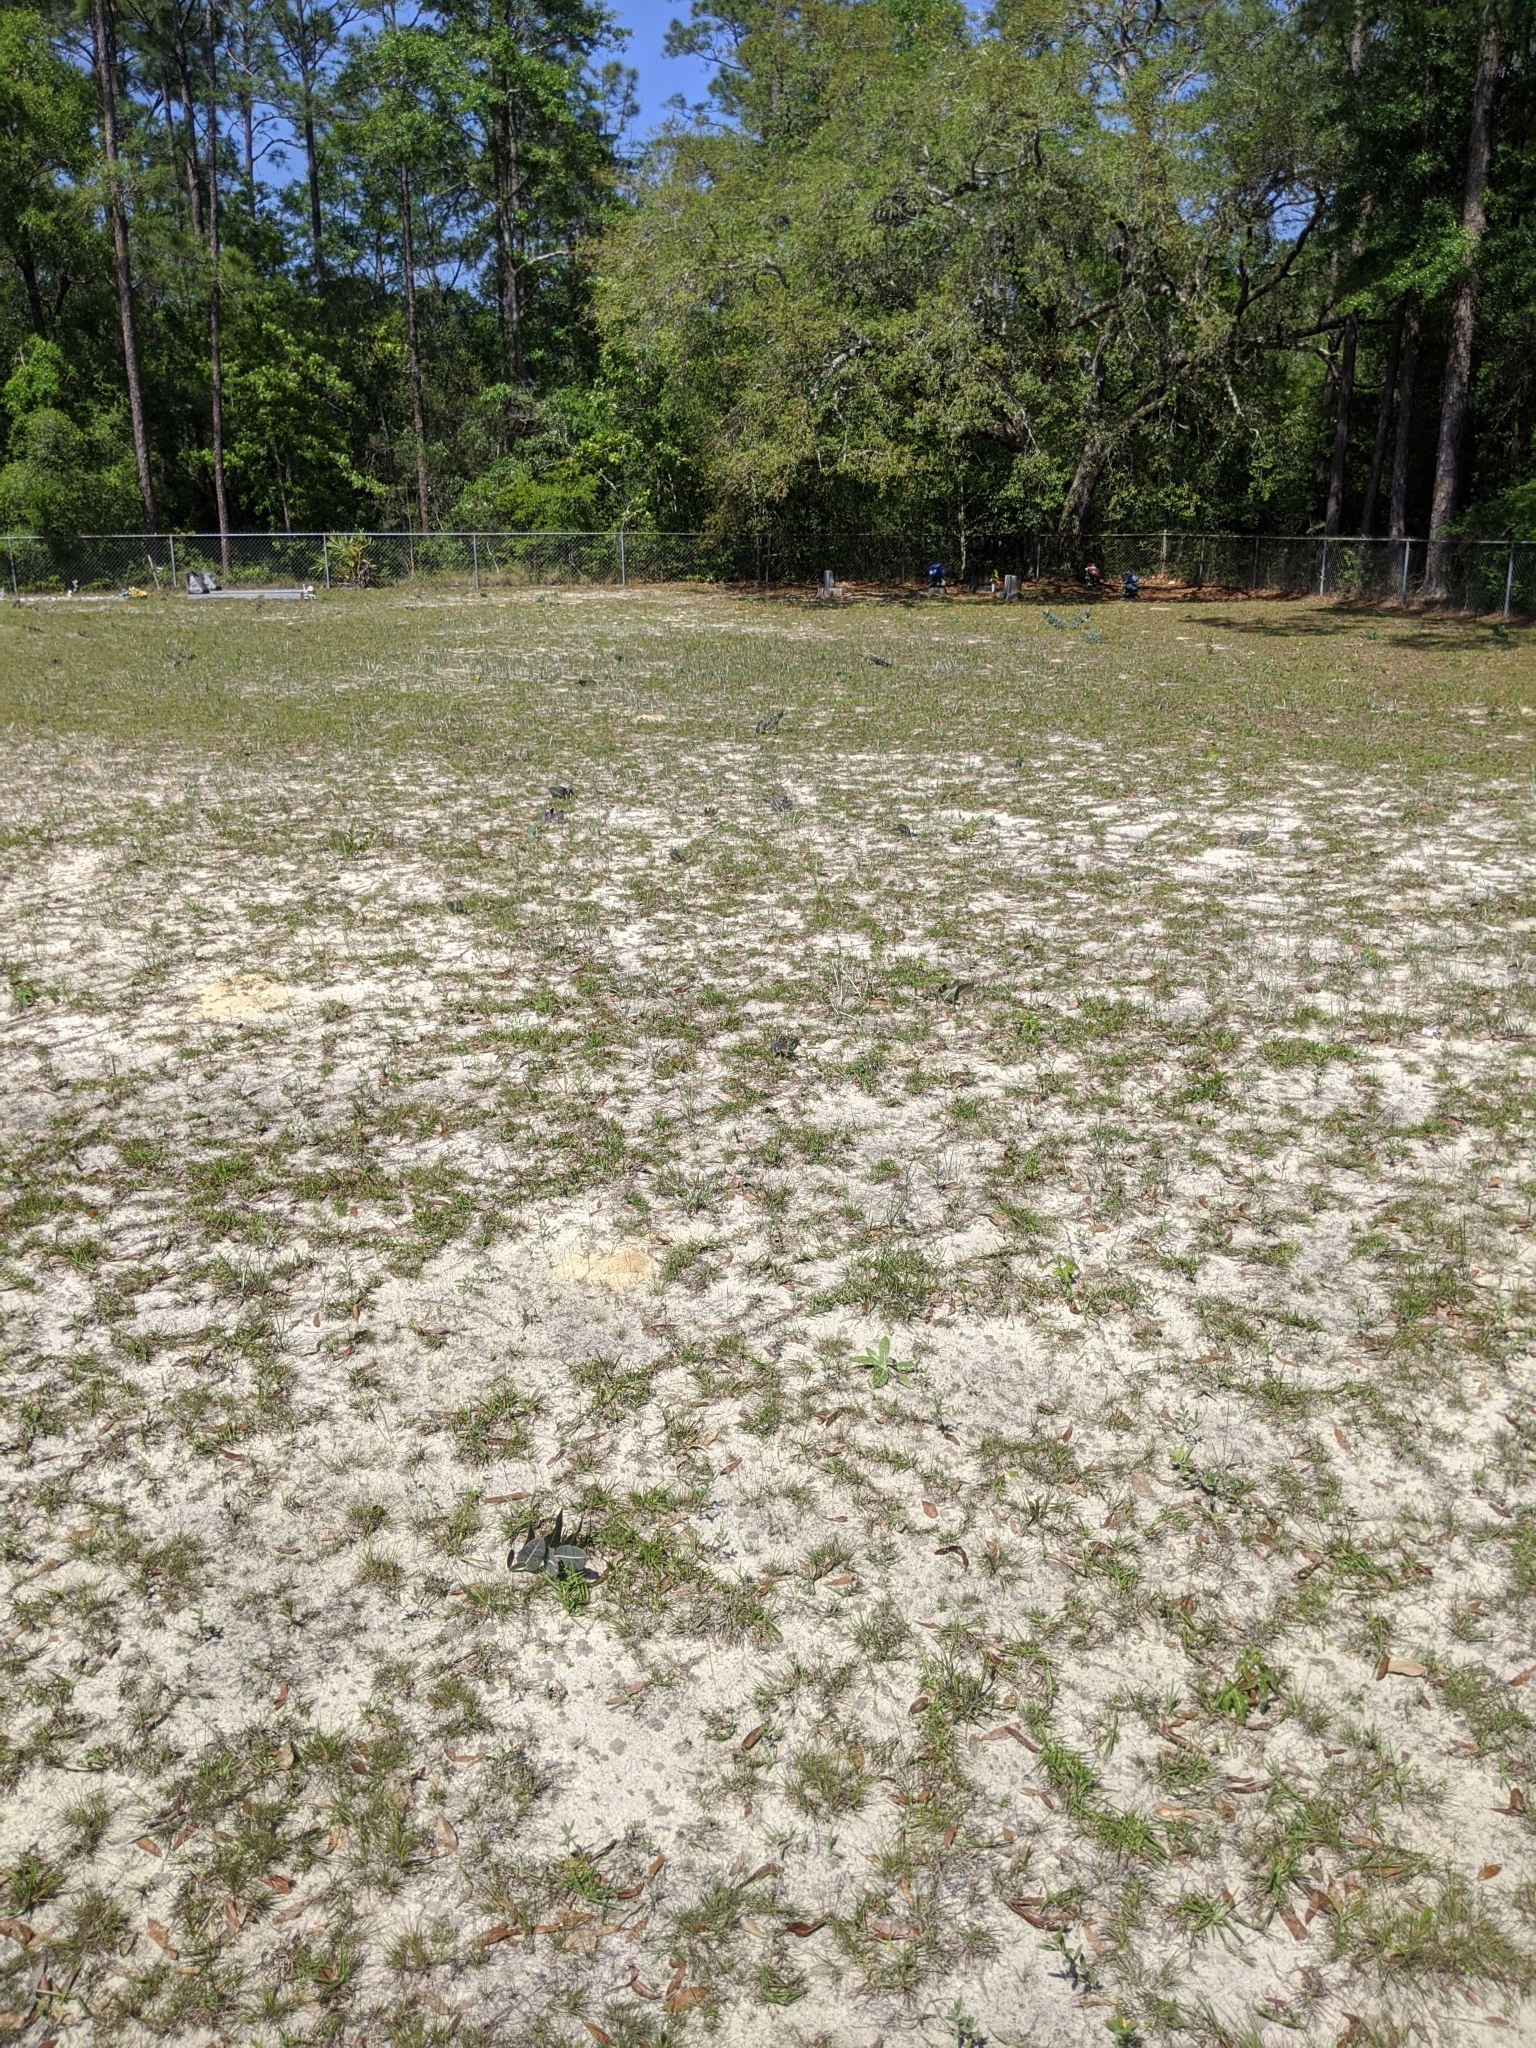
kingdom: Plantae
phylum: Tracheophyta
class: Magnoliopsida
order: Gentianales
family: Apocynaceae
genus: Asclepias
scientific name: Asclepias humistrata
